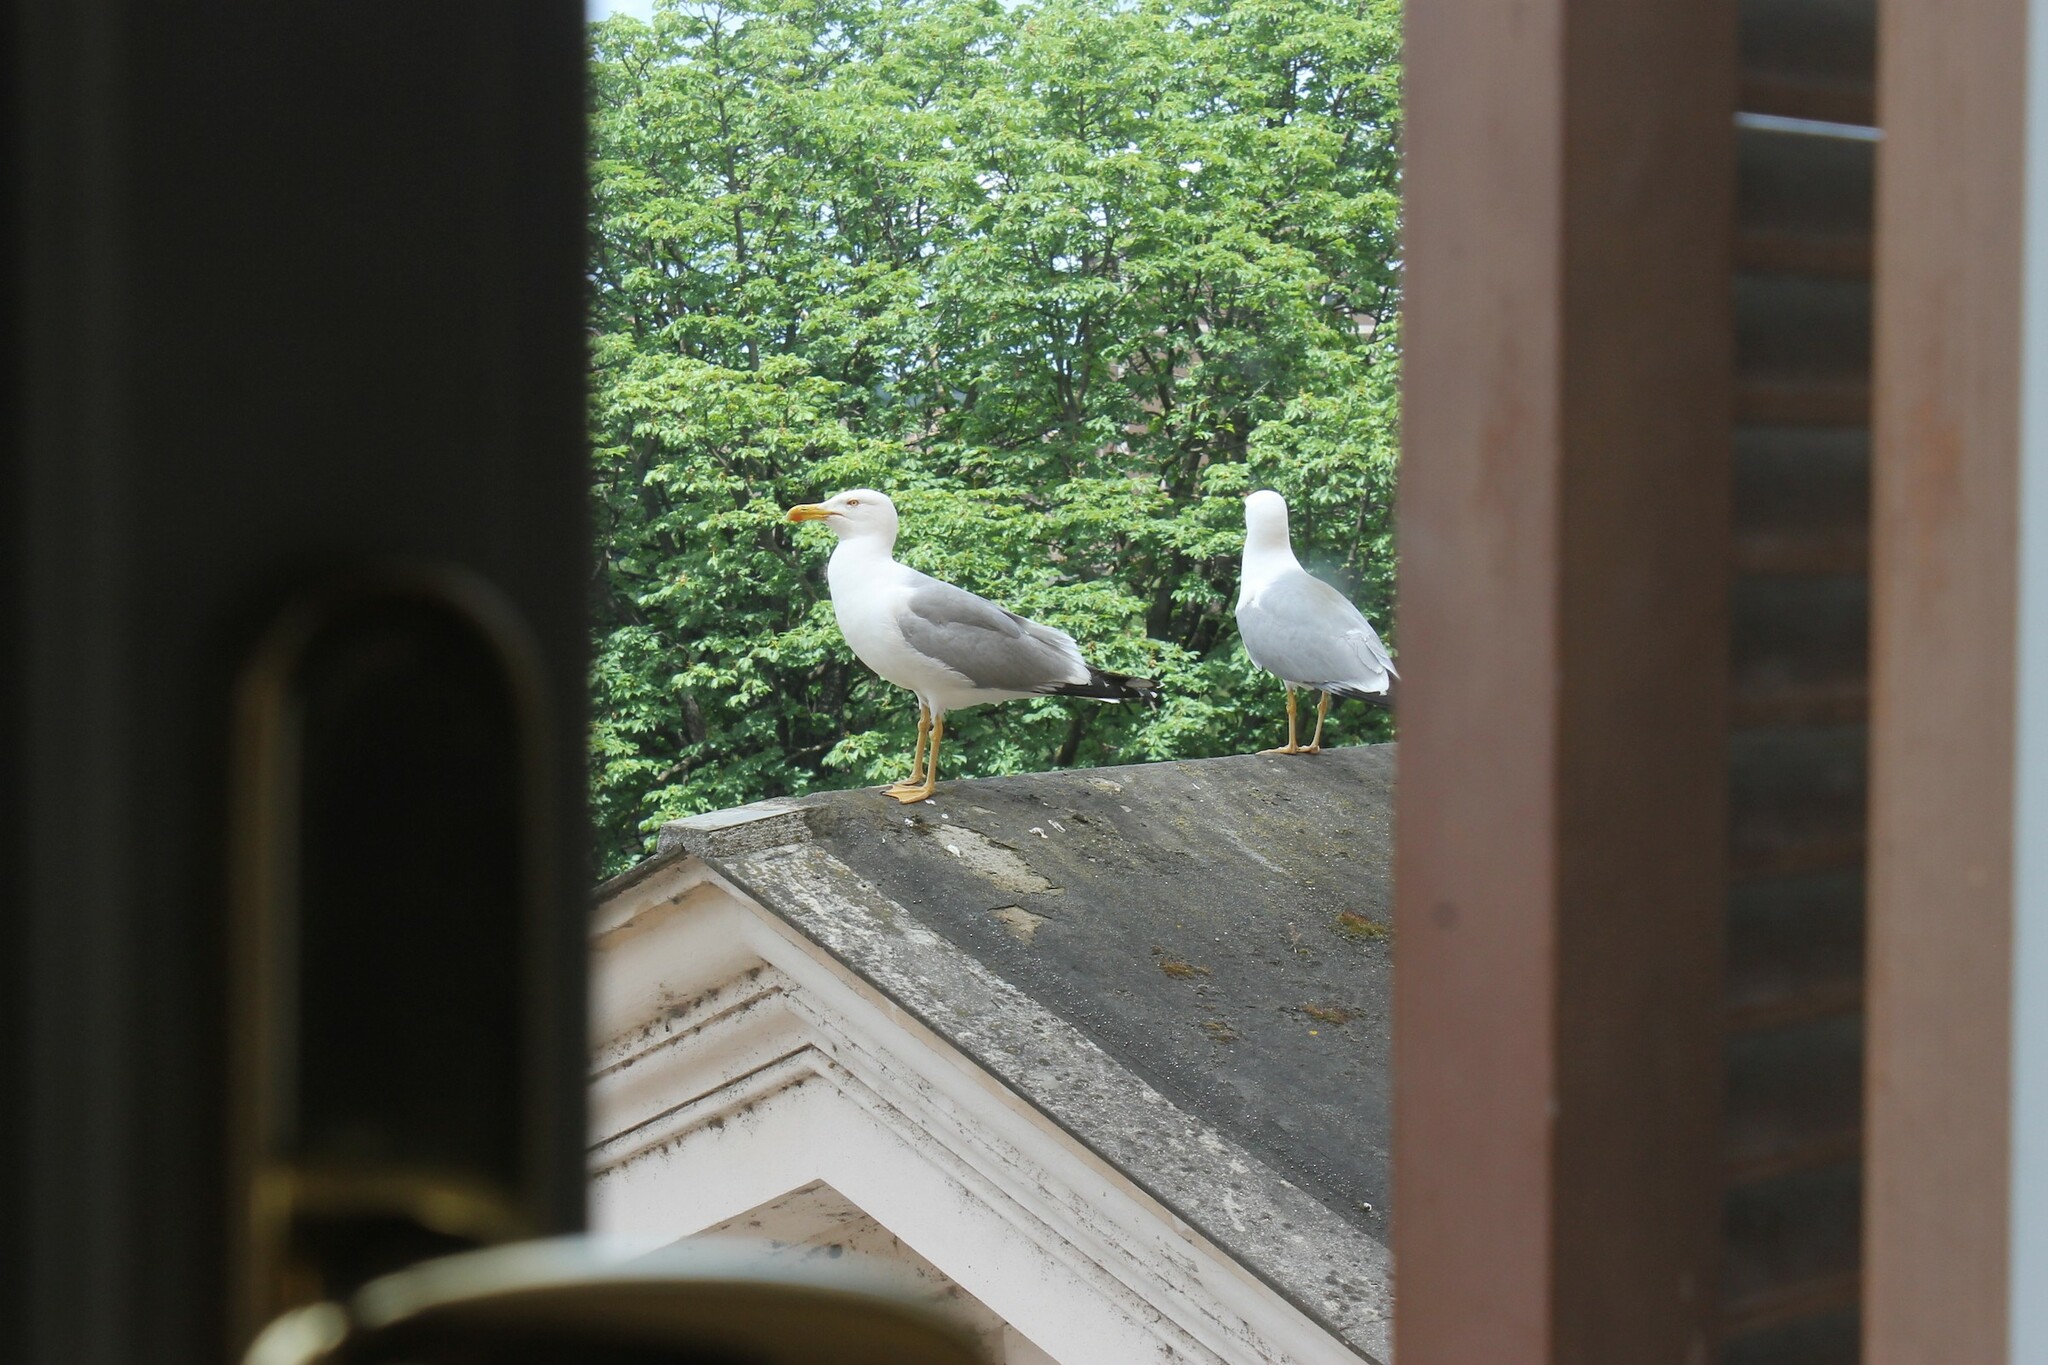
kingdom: Animalia
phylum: Chordata
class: Aves
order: Charadriiformes
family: Laridae
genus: Larus
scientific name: Larus michahellis
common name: Yellow-legged gull
